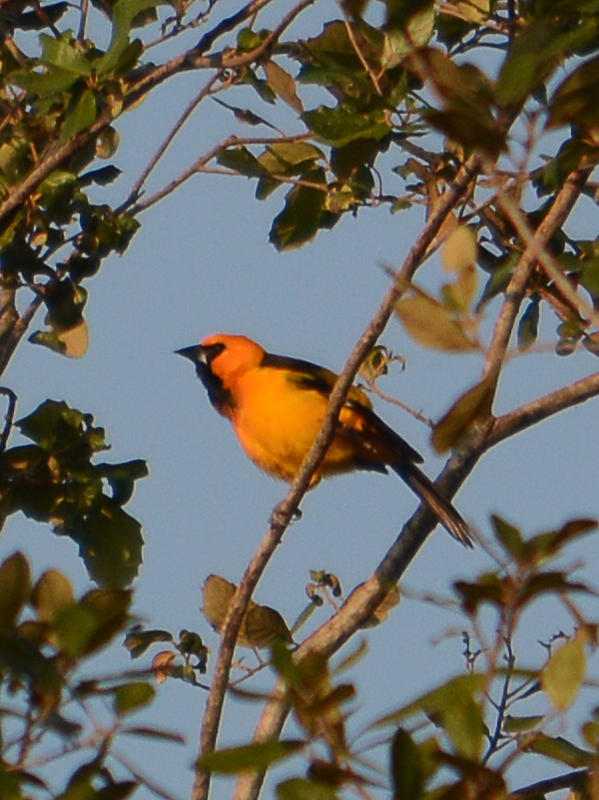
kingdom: Animalia
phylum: Chordata
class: Aves
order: Passeriformes
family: Icteridae
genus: Icterus
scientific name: Icterus gularis
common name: Altamira oriole
